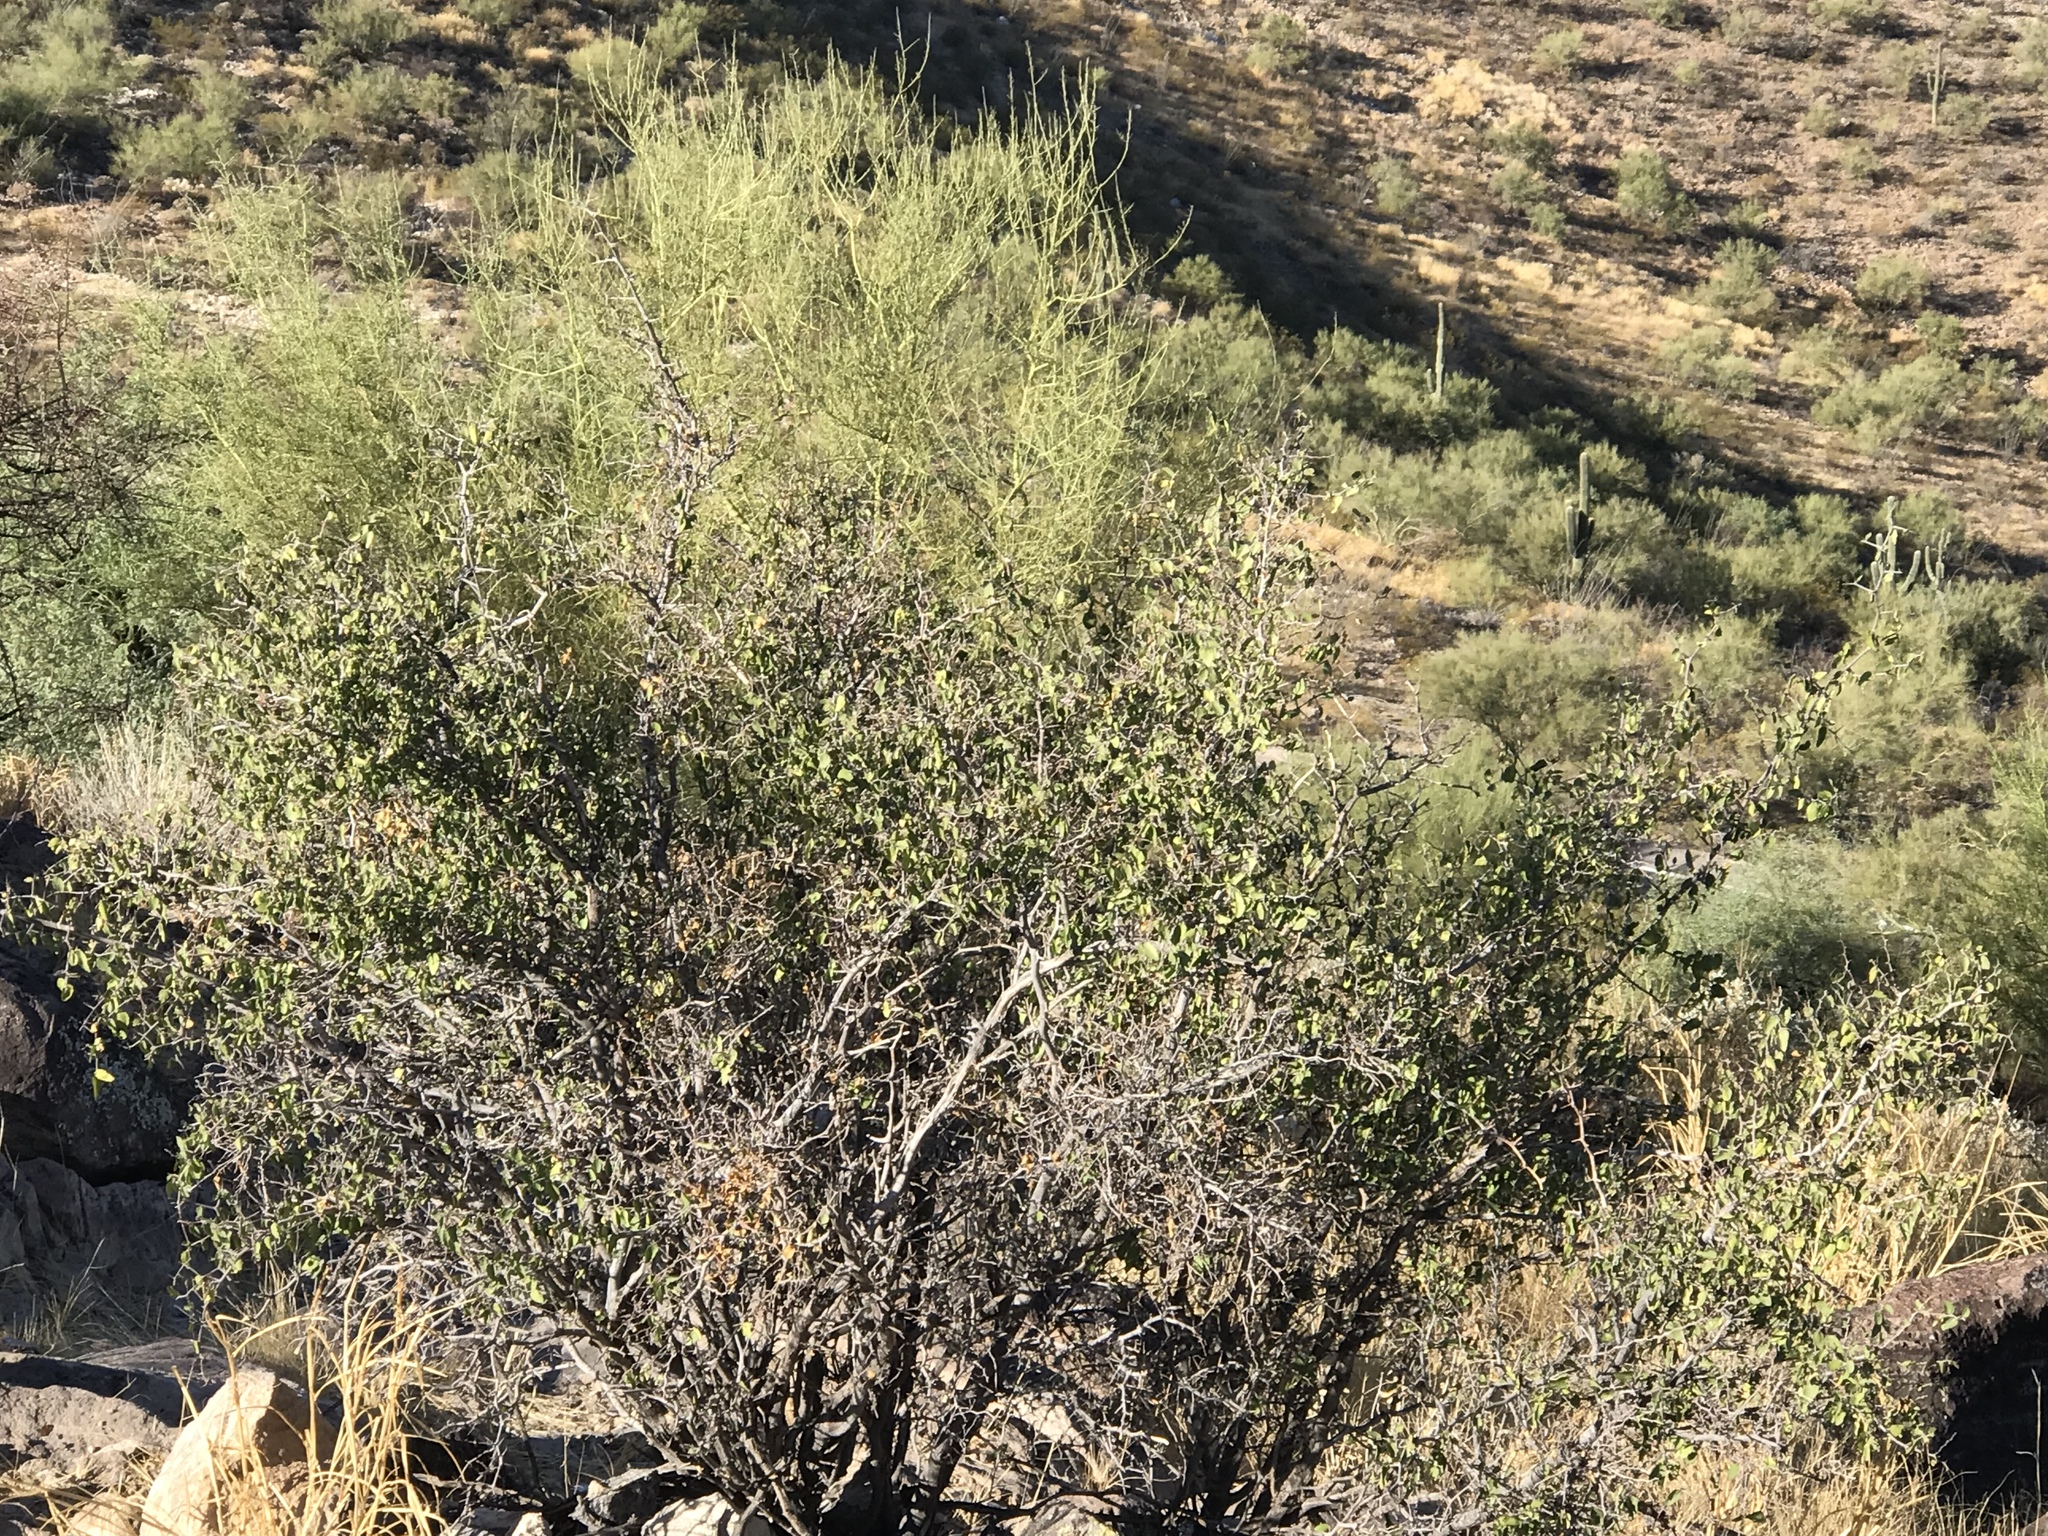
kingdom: Plantae
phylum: Tracheophyta
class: Magnoliopsida
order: Solanales
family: Solanaceae
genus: Lycium
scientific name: Lycium berlandieri
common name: Berlandier wolfberry
